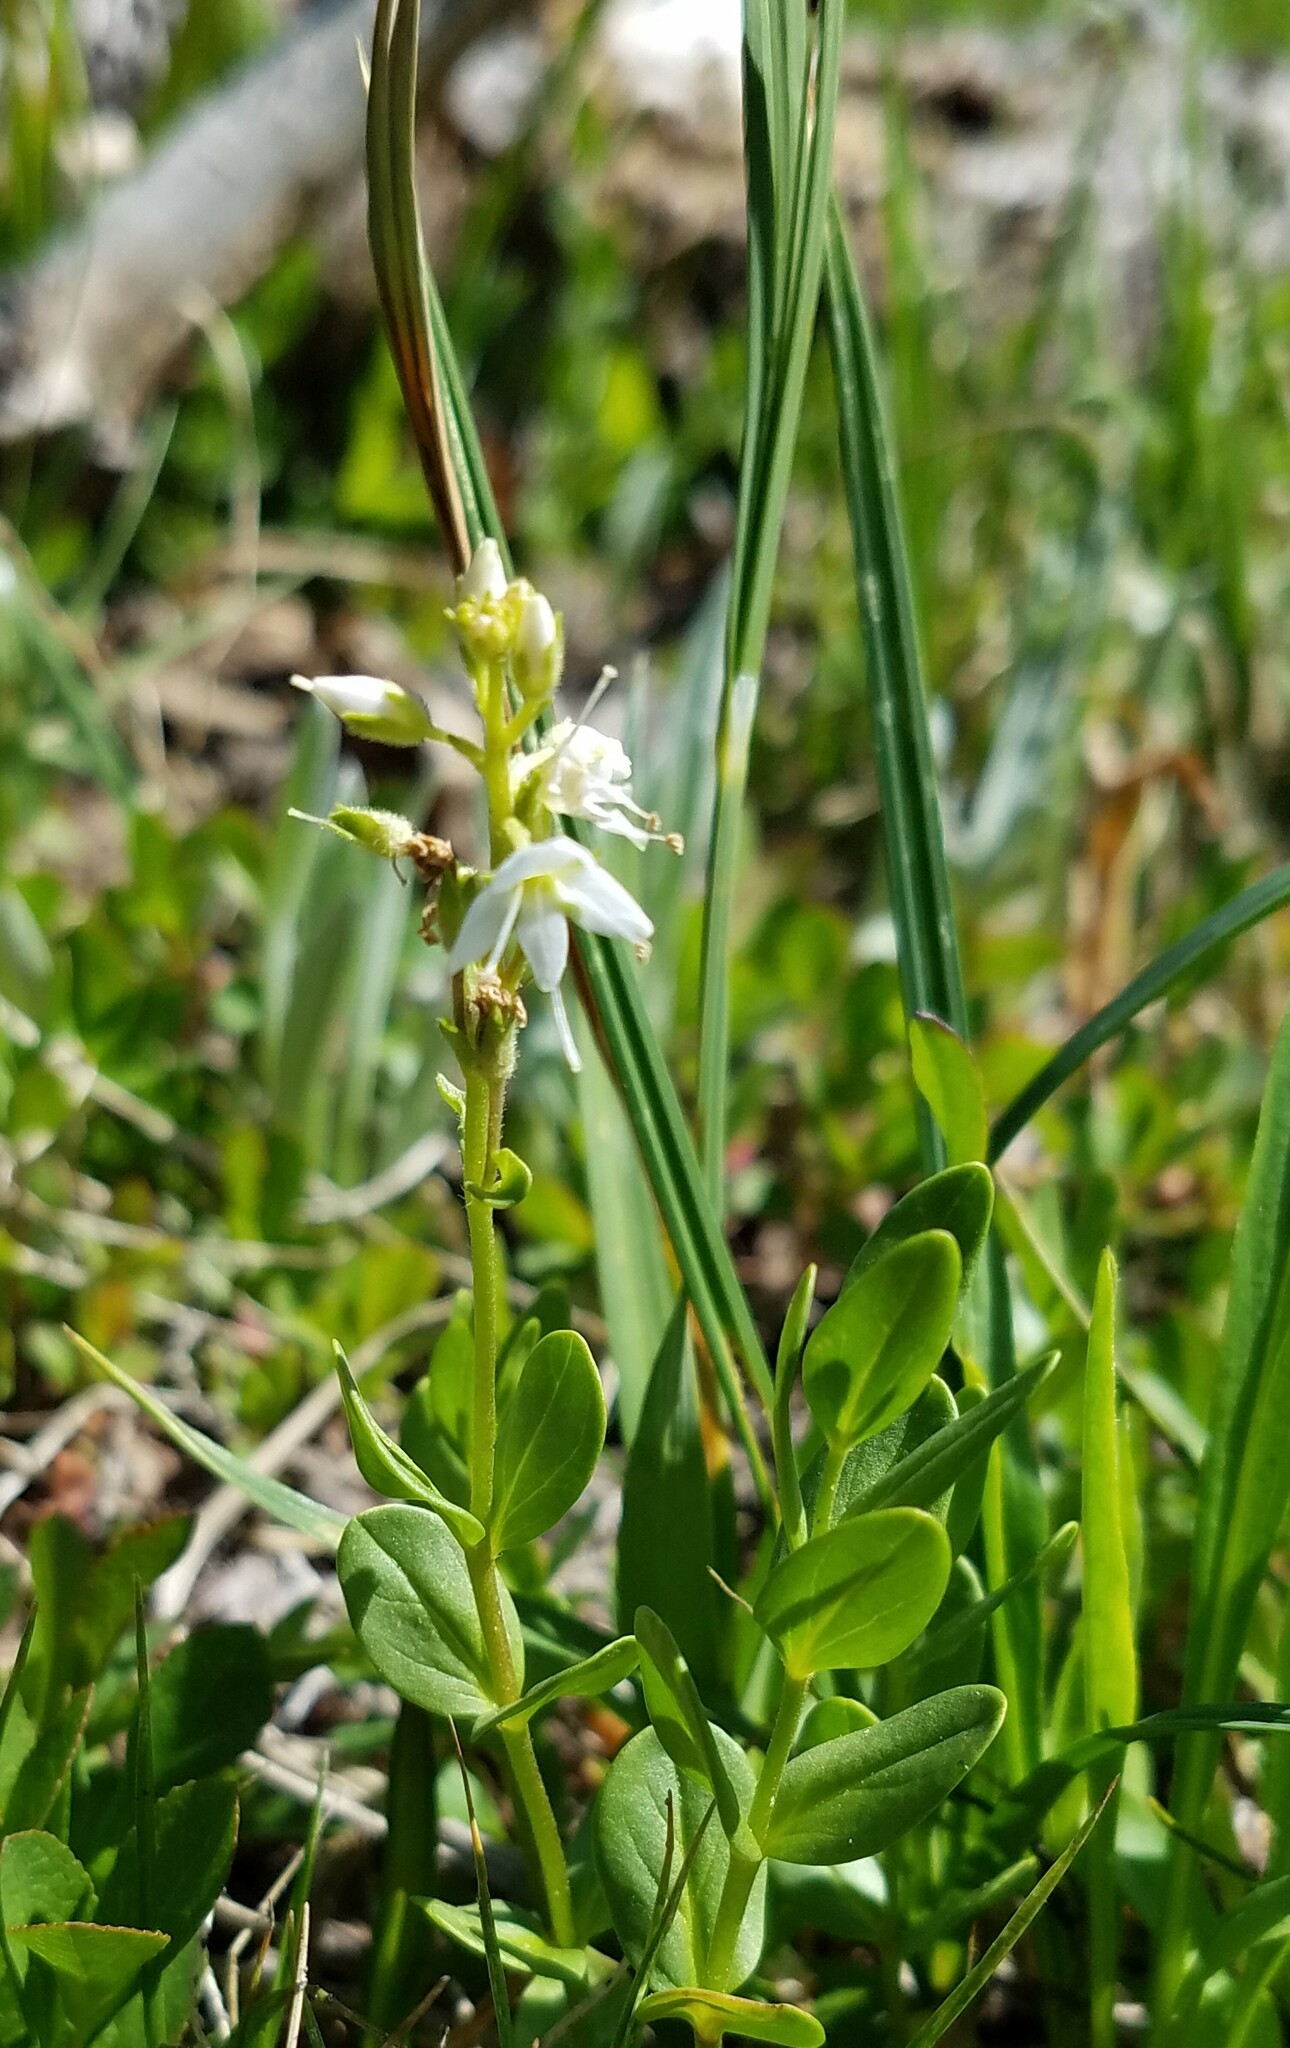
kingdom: Plantae
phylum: Tracheophyta
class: Magnoliopsida
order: Lamiales
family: Plantaginaceae
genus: Veronica
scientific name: Veronica cusickii
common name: Cusick's speedwell
